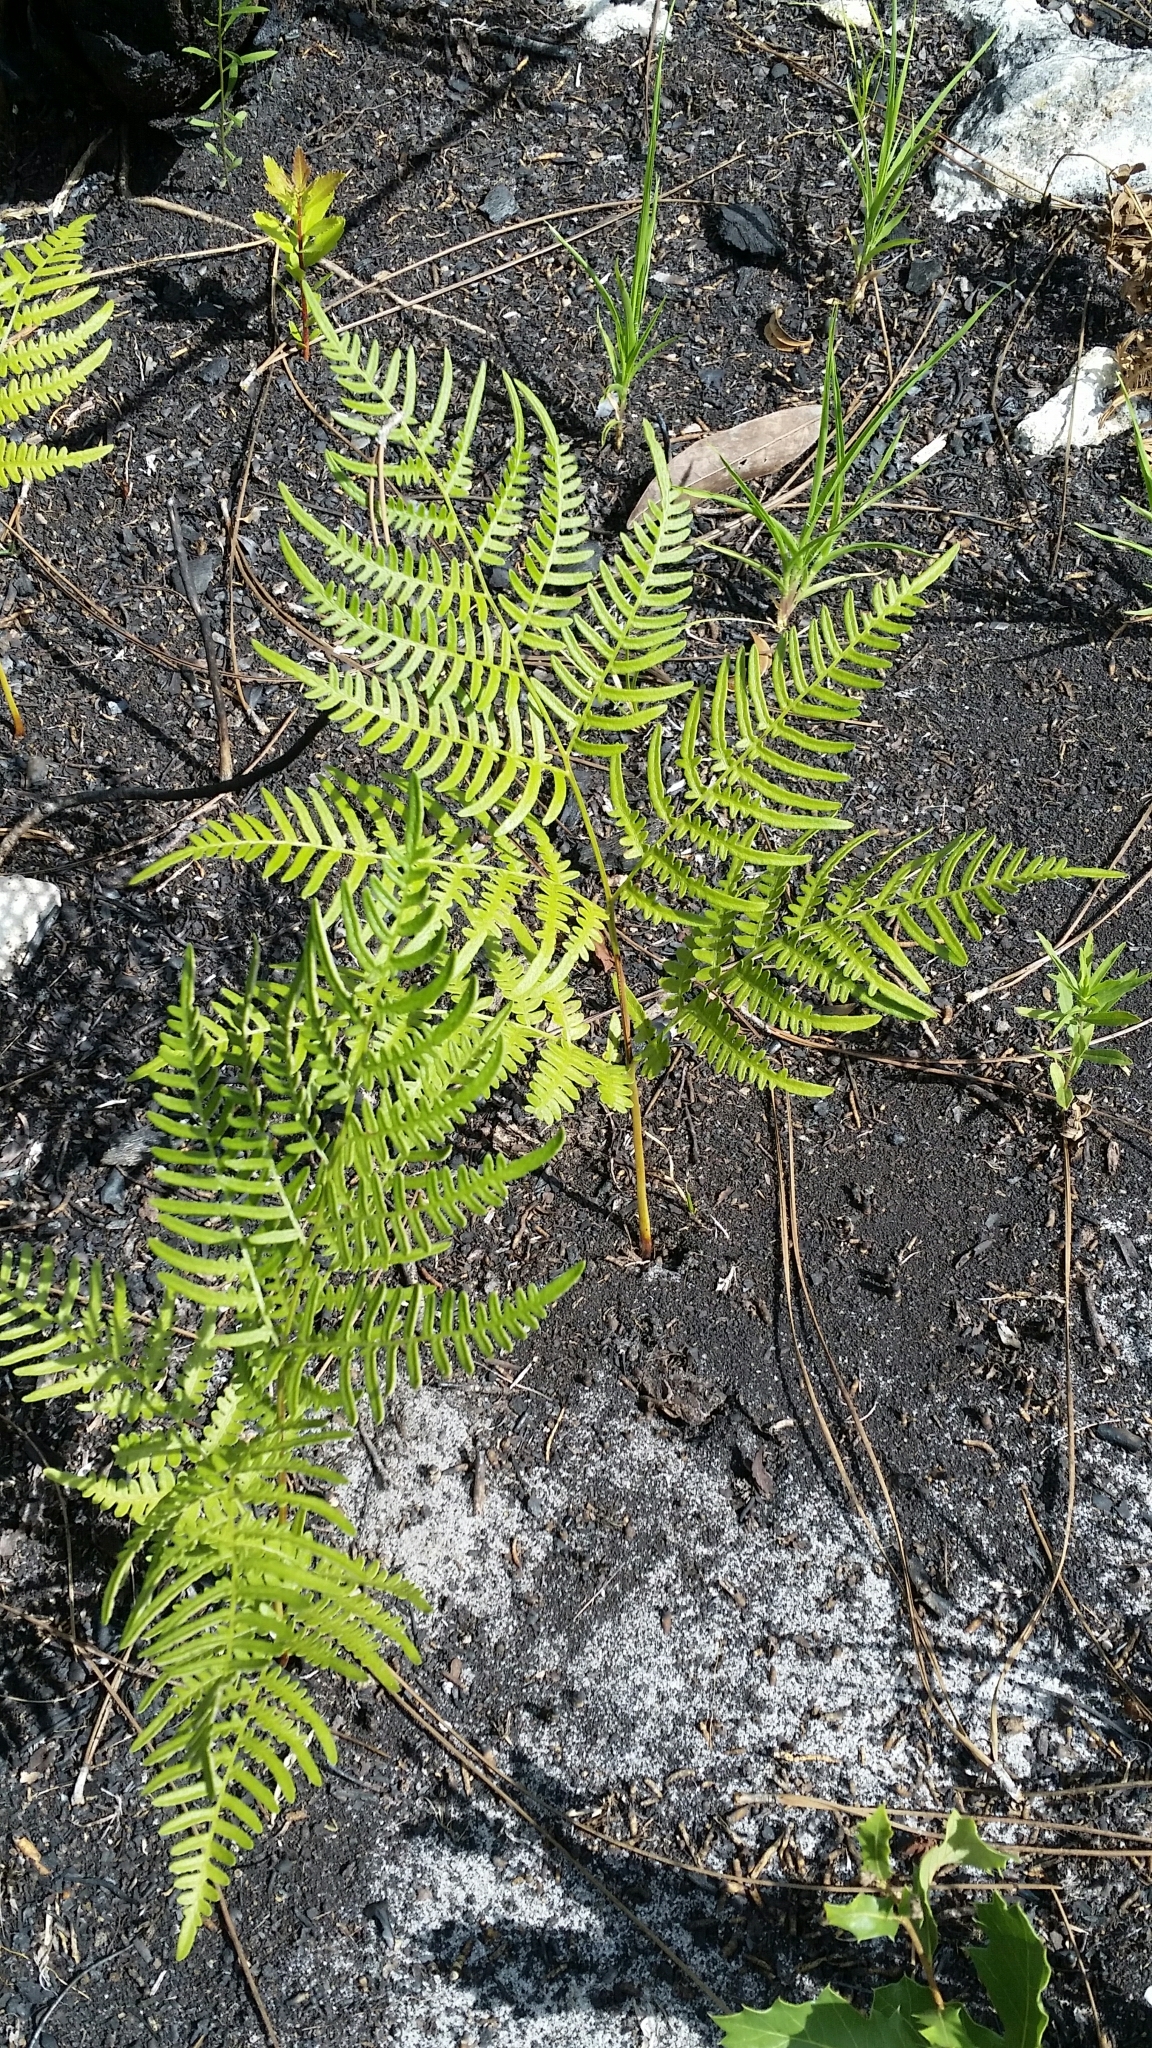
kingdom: Plantae
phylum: Tracheophyta
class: Polypodiopsida
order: Polypodiales
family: Dennstaedtiaceae
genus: Pteridium
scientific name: Pteridium
